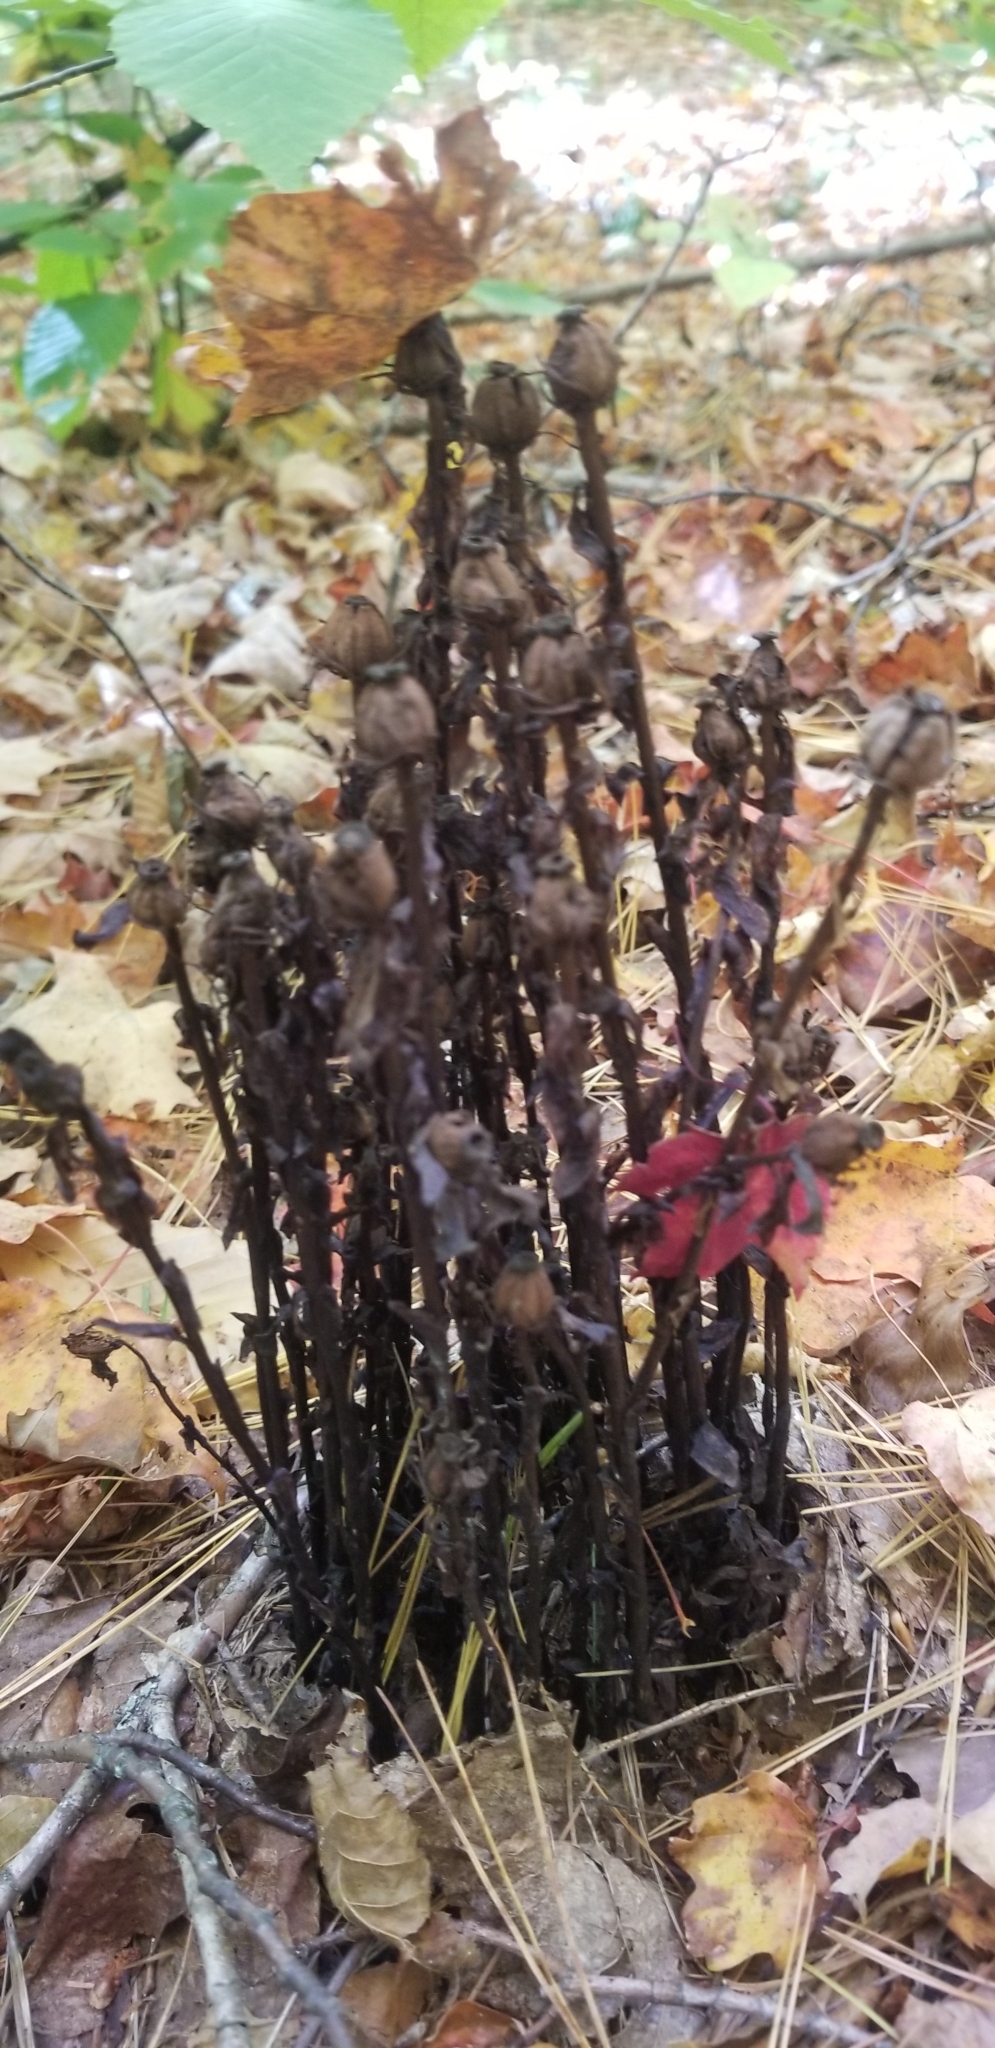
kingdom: Plantae
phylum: Tracheophyta
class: Magnoliopsida
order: Ericales
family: Ericaceae
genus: Monotropa
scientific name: Monotropa uniflora
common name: Convulsion root
